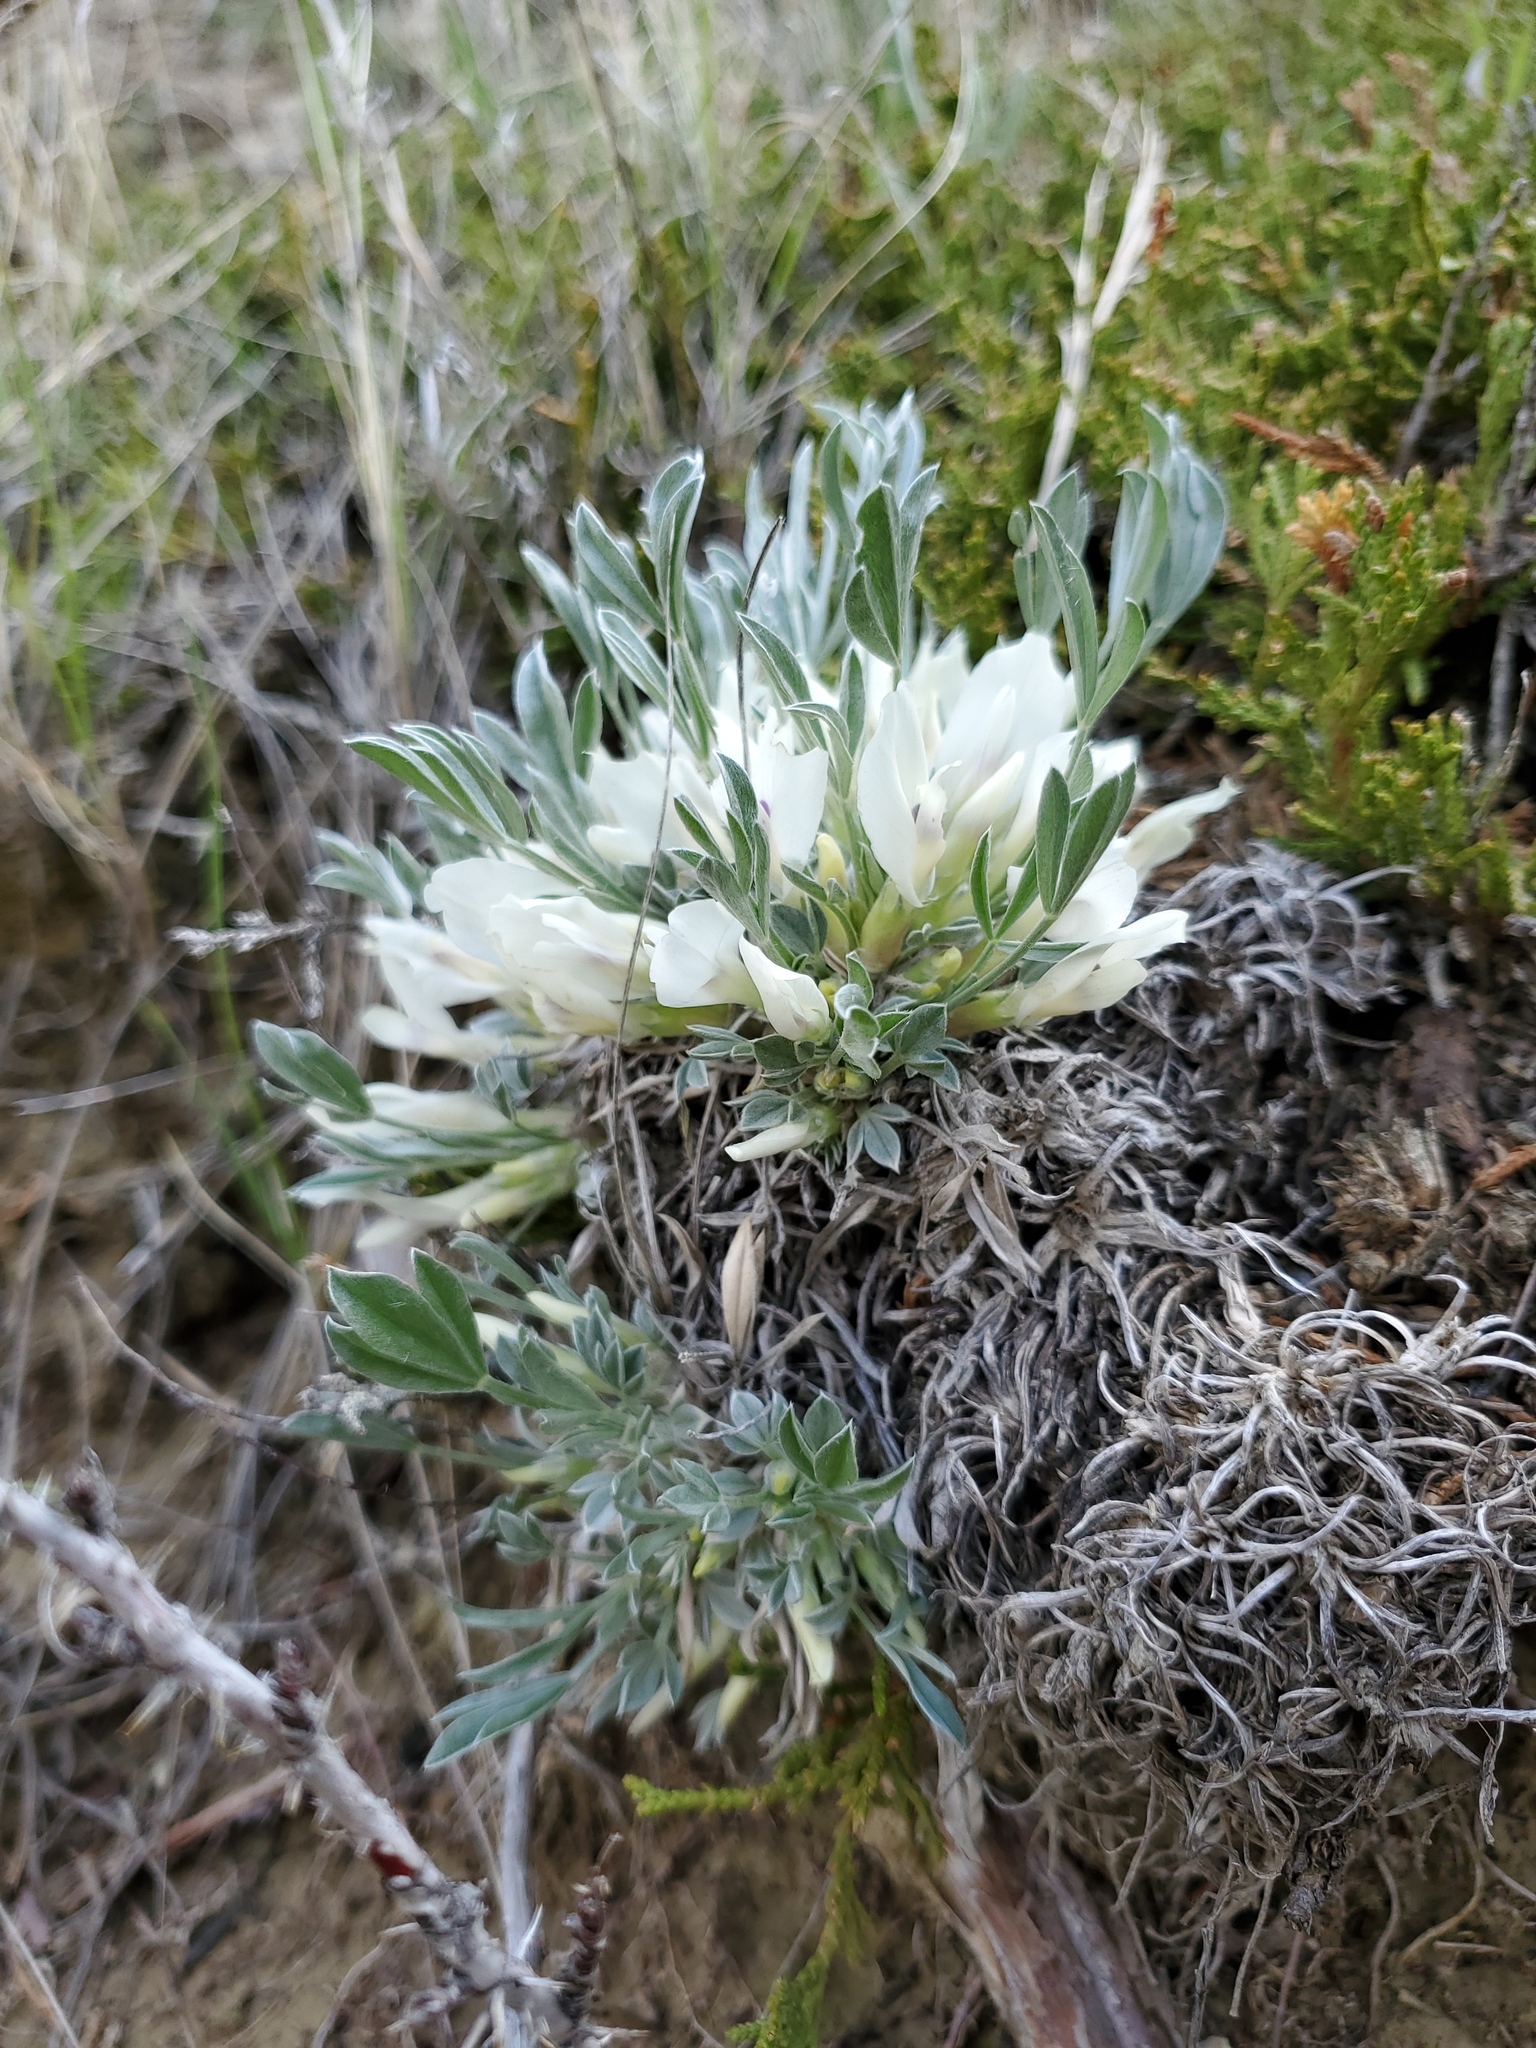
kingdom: Plantae
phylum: Tracheophyta
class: Magnoliopsida
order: Fabales
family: Fabaceae
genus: Astragalus
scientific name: Astragalus gilviflorus
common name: Cushion milk-vetch
